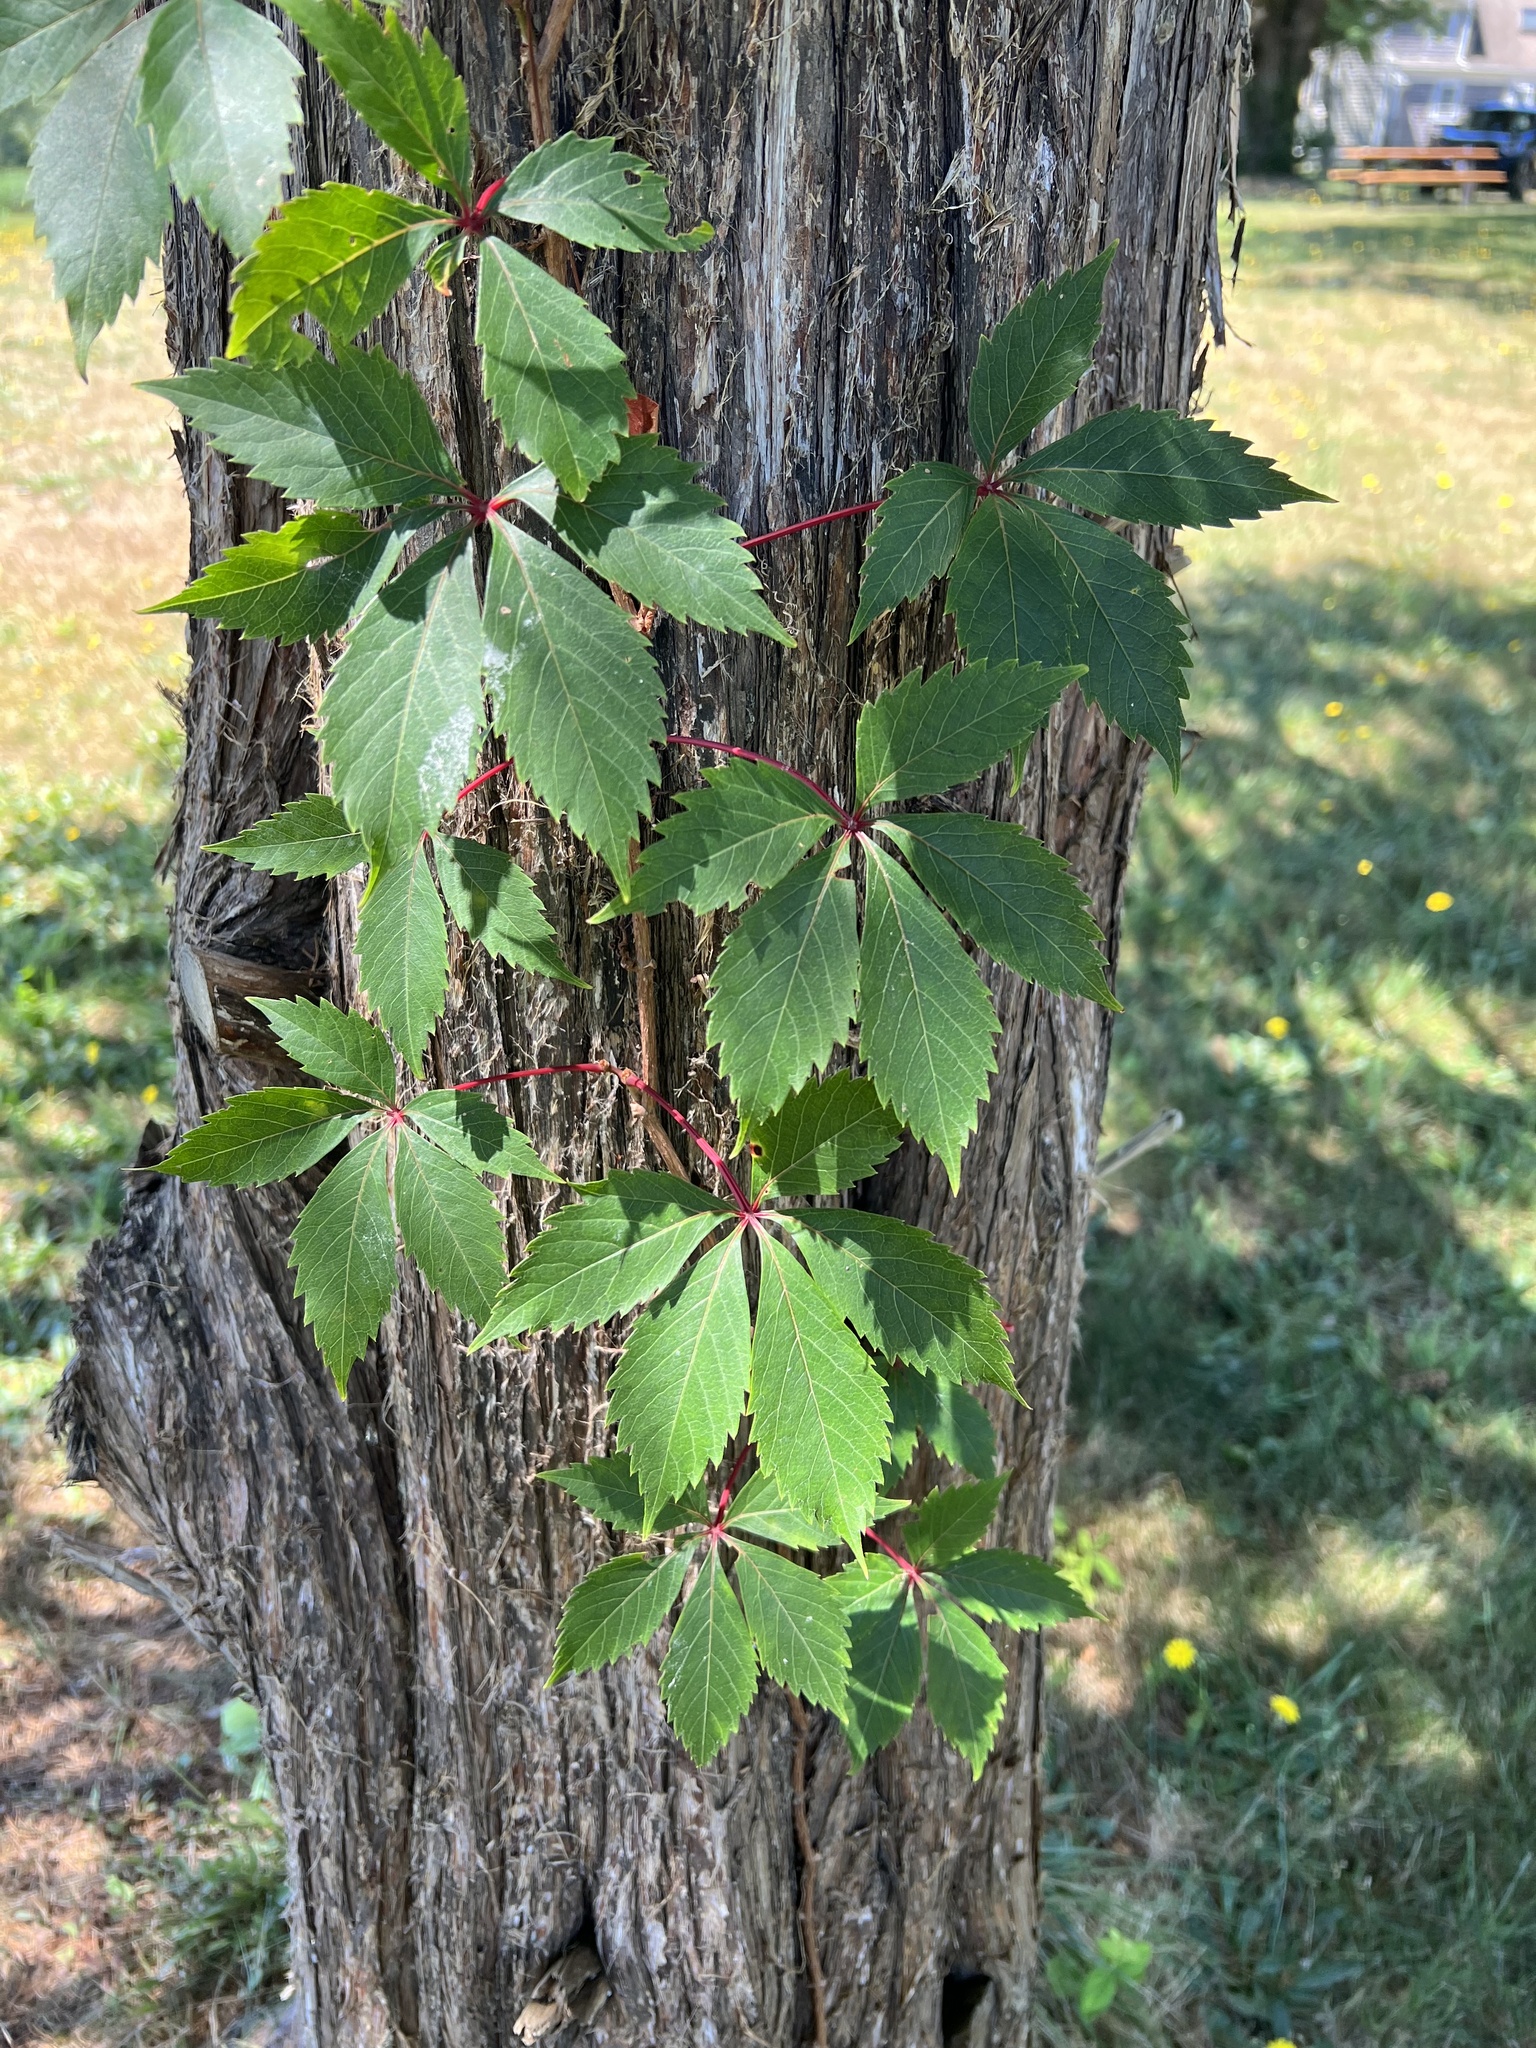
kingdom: Plantae
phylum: Tracheophyta
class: Magnoliopsida
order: Vitales
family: Vitaceae
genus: Parthenocissus
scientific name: Parthenocissus quinquefolia
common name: Virginia-creeper
